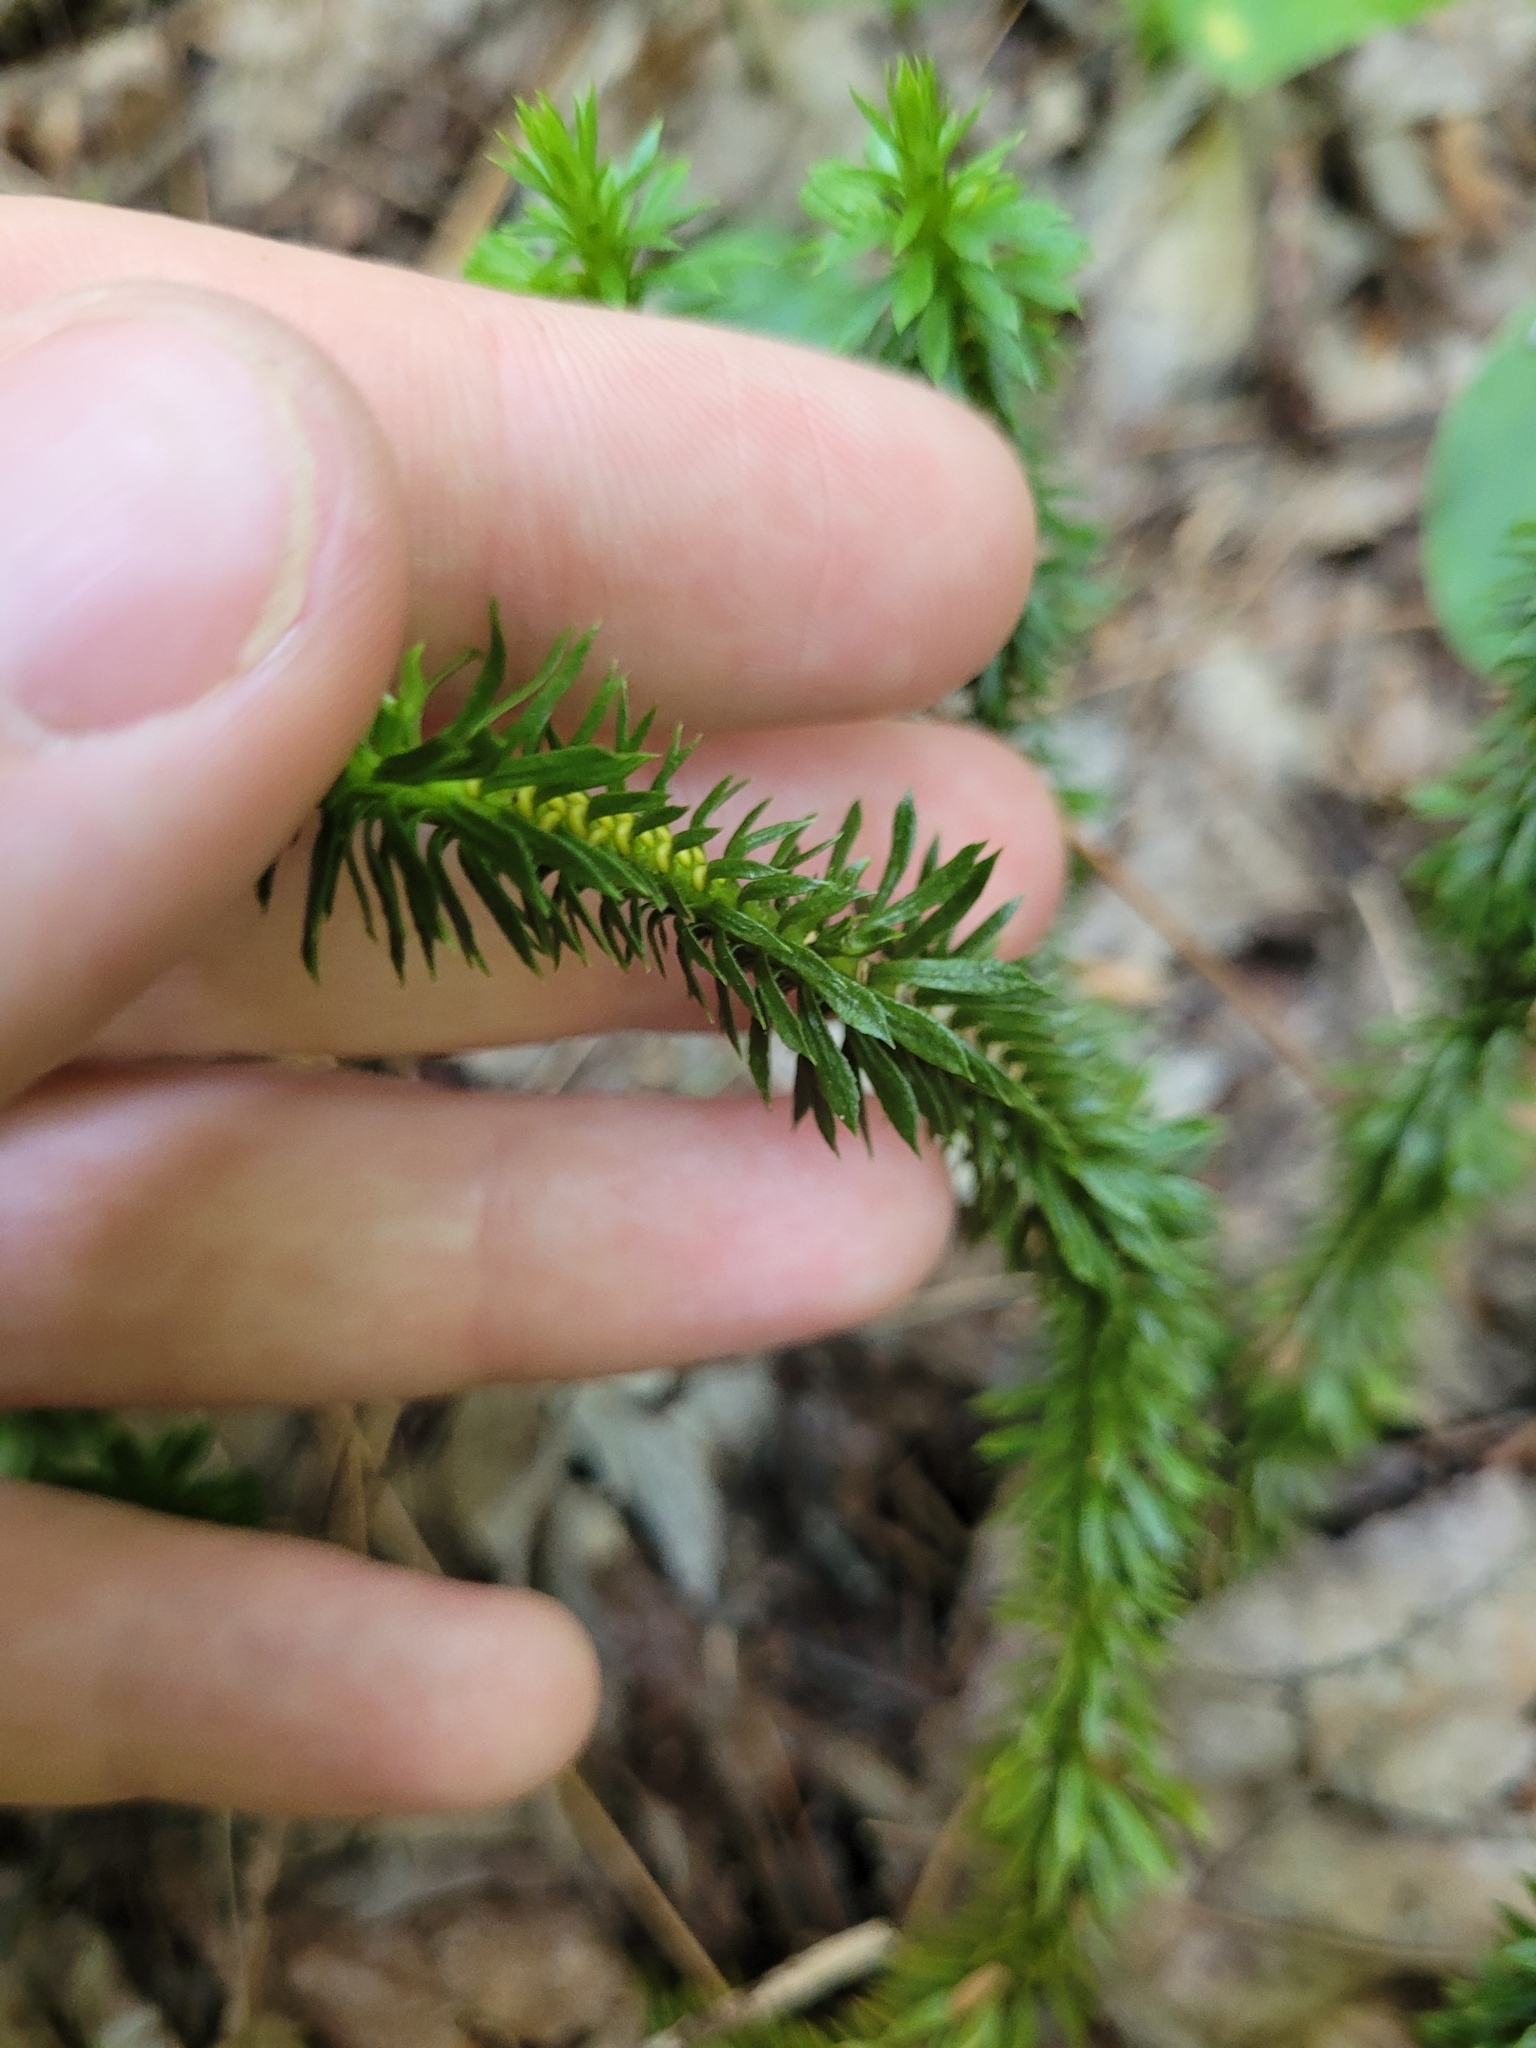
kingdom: Plantae
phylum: Tracheophyta
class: Lycopodiopsida
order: Lycopodiales
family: Lycopodiaceae
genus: Huperzia
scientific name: Huperzia lucidula
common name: Shining clubmoss
